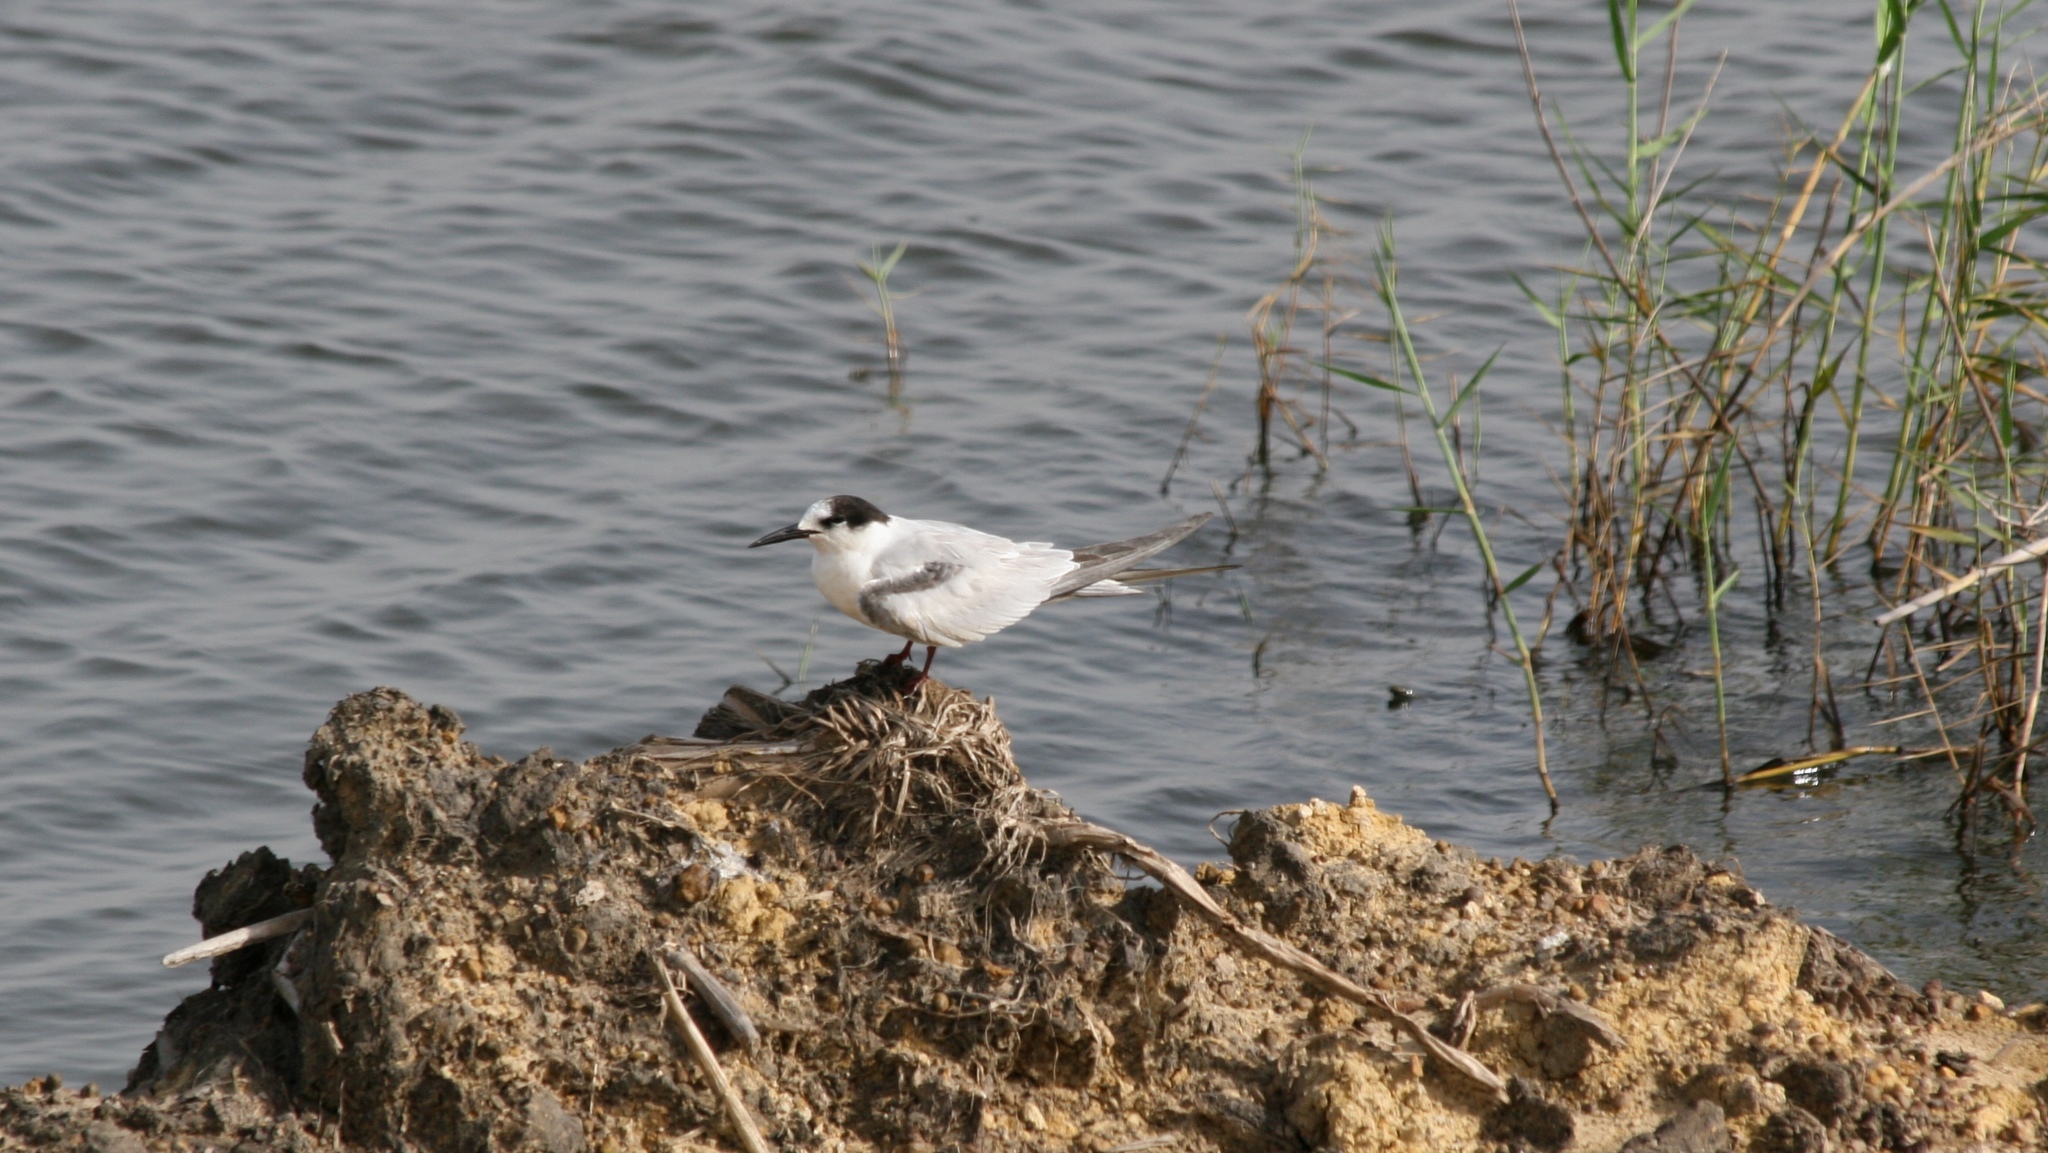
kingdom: Animalia
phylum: Chordata
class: Aves
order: Charadriiformes
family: Laridae
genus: Sterna
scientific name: Sterna hirundo
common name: Common tern
